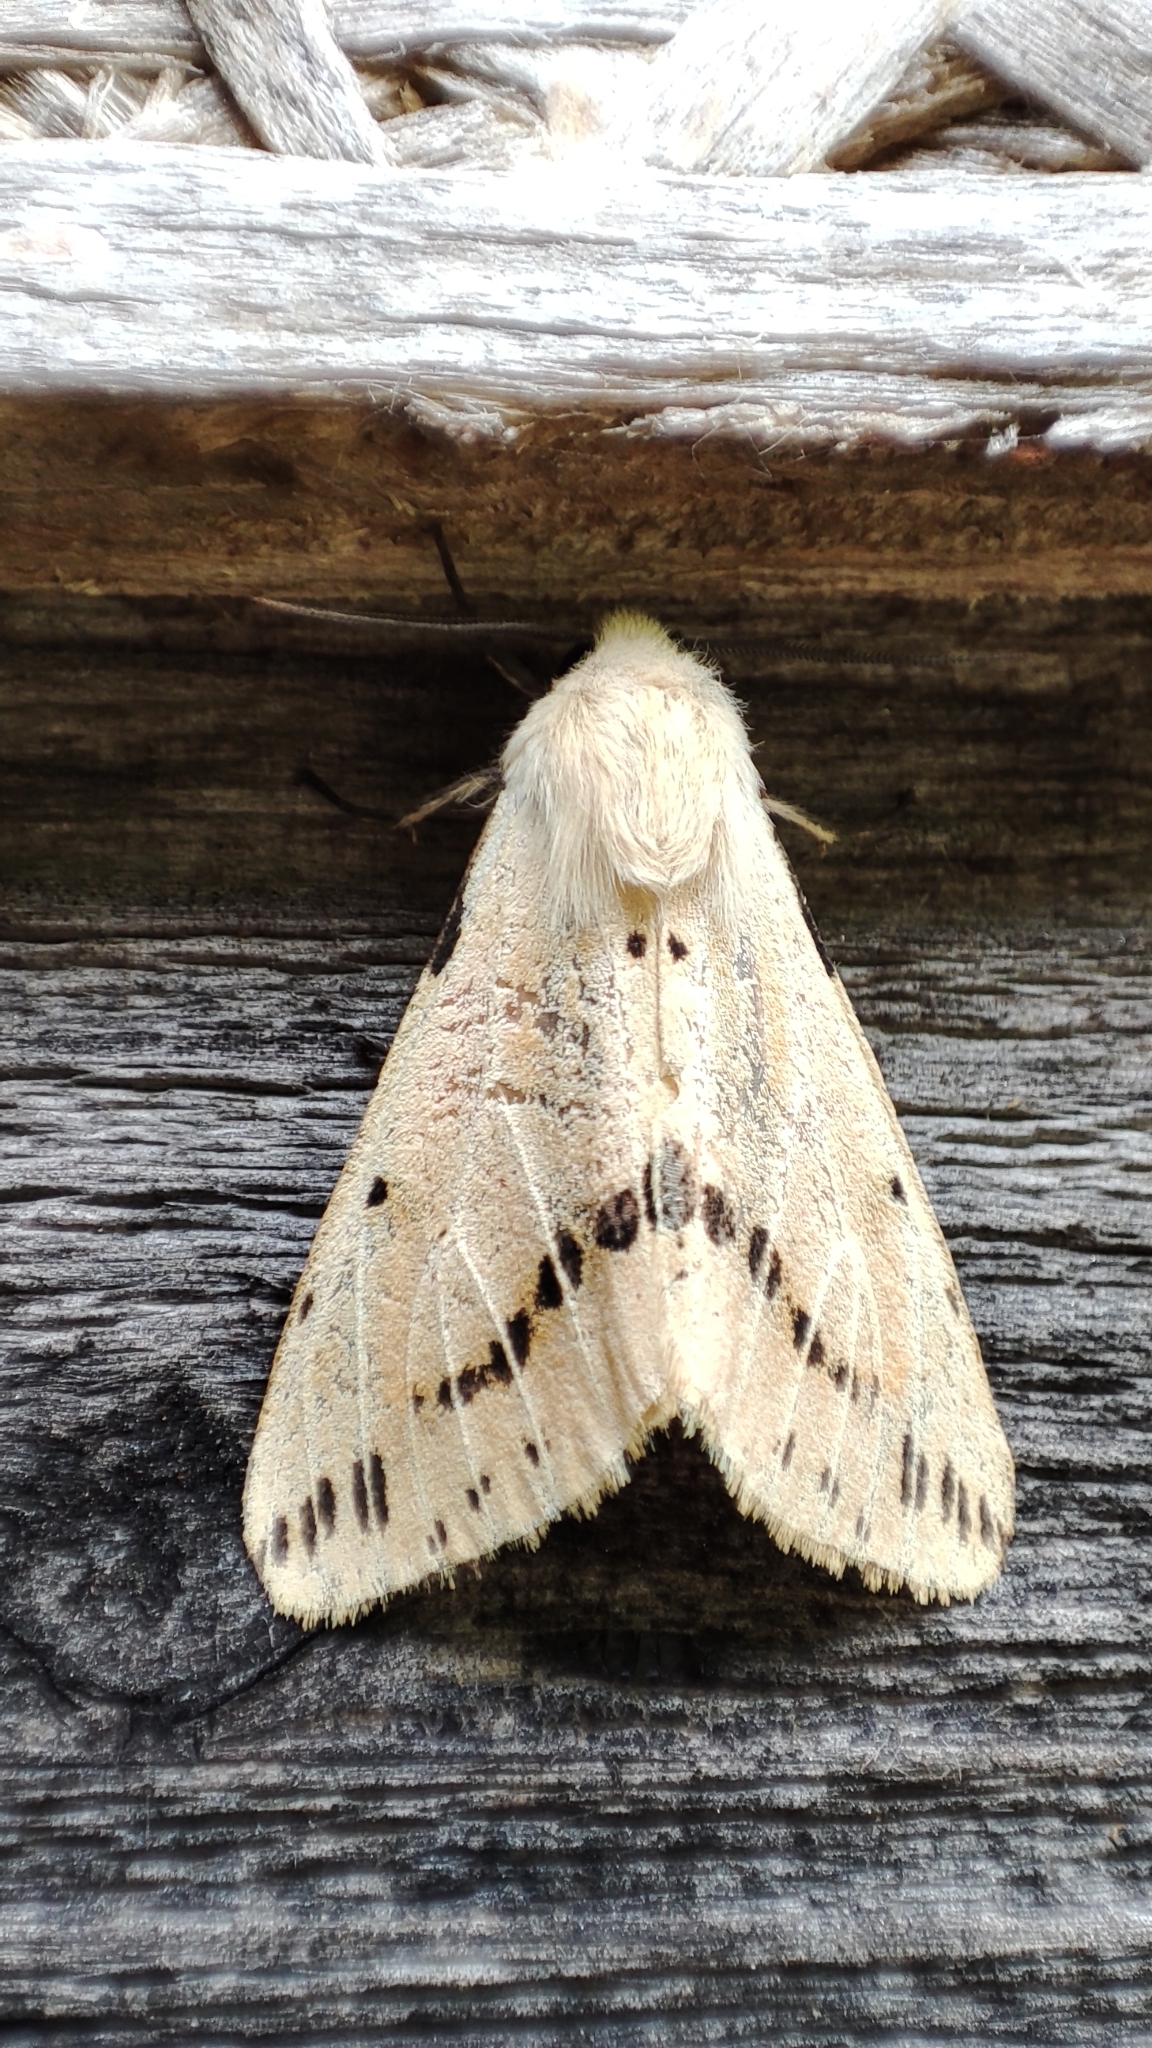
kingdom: Animalia
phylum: Arthropoda
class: Insecta
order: Lepidoptera
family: Erebidae
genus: Spilarctia
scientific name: Spilarctia seriatopunctata
